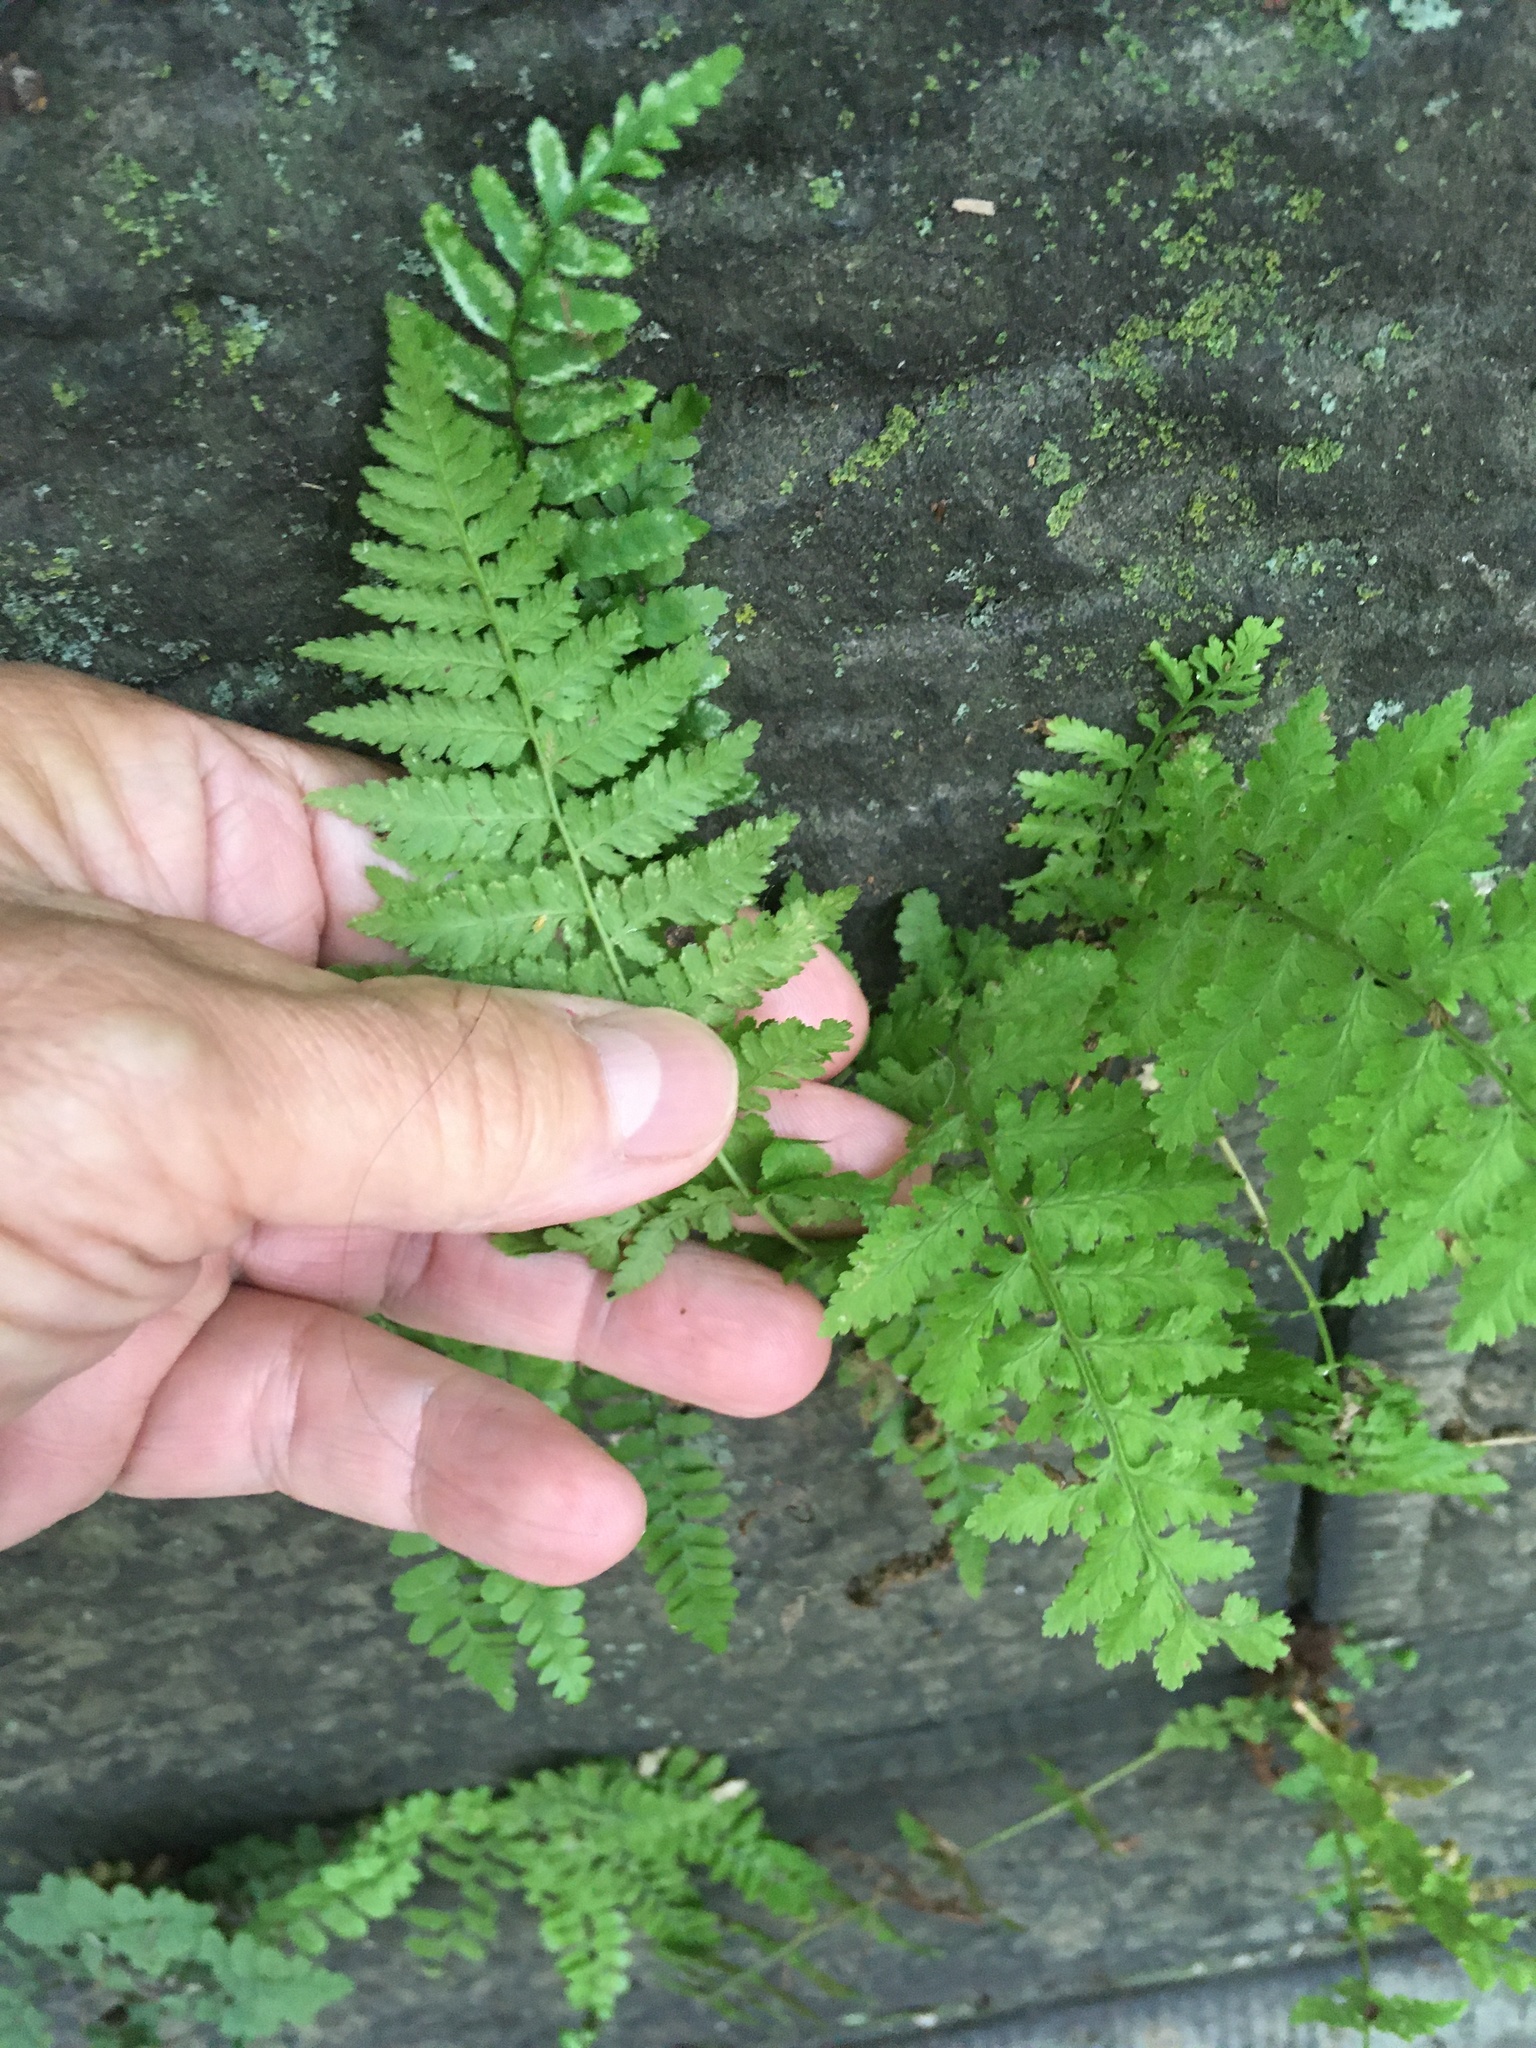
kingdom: Plantae
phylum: Tracheophyta
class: Polypodiopsida
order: Polypodiales
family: Athyriaceae
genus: Athyrium
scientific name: Athyrium angustum
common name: Northern lady fern
